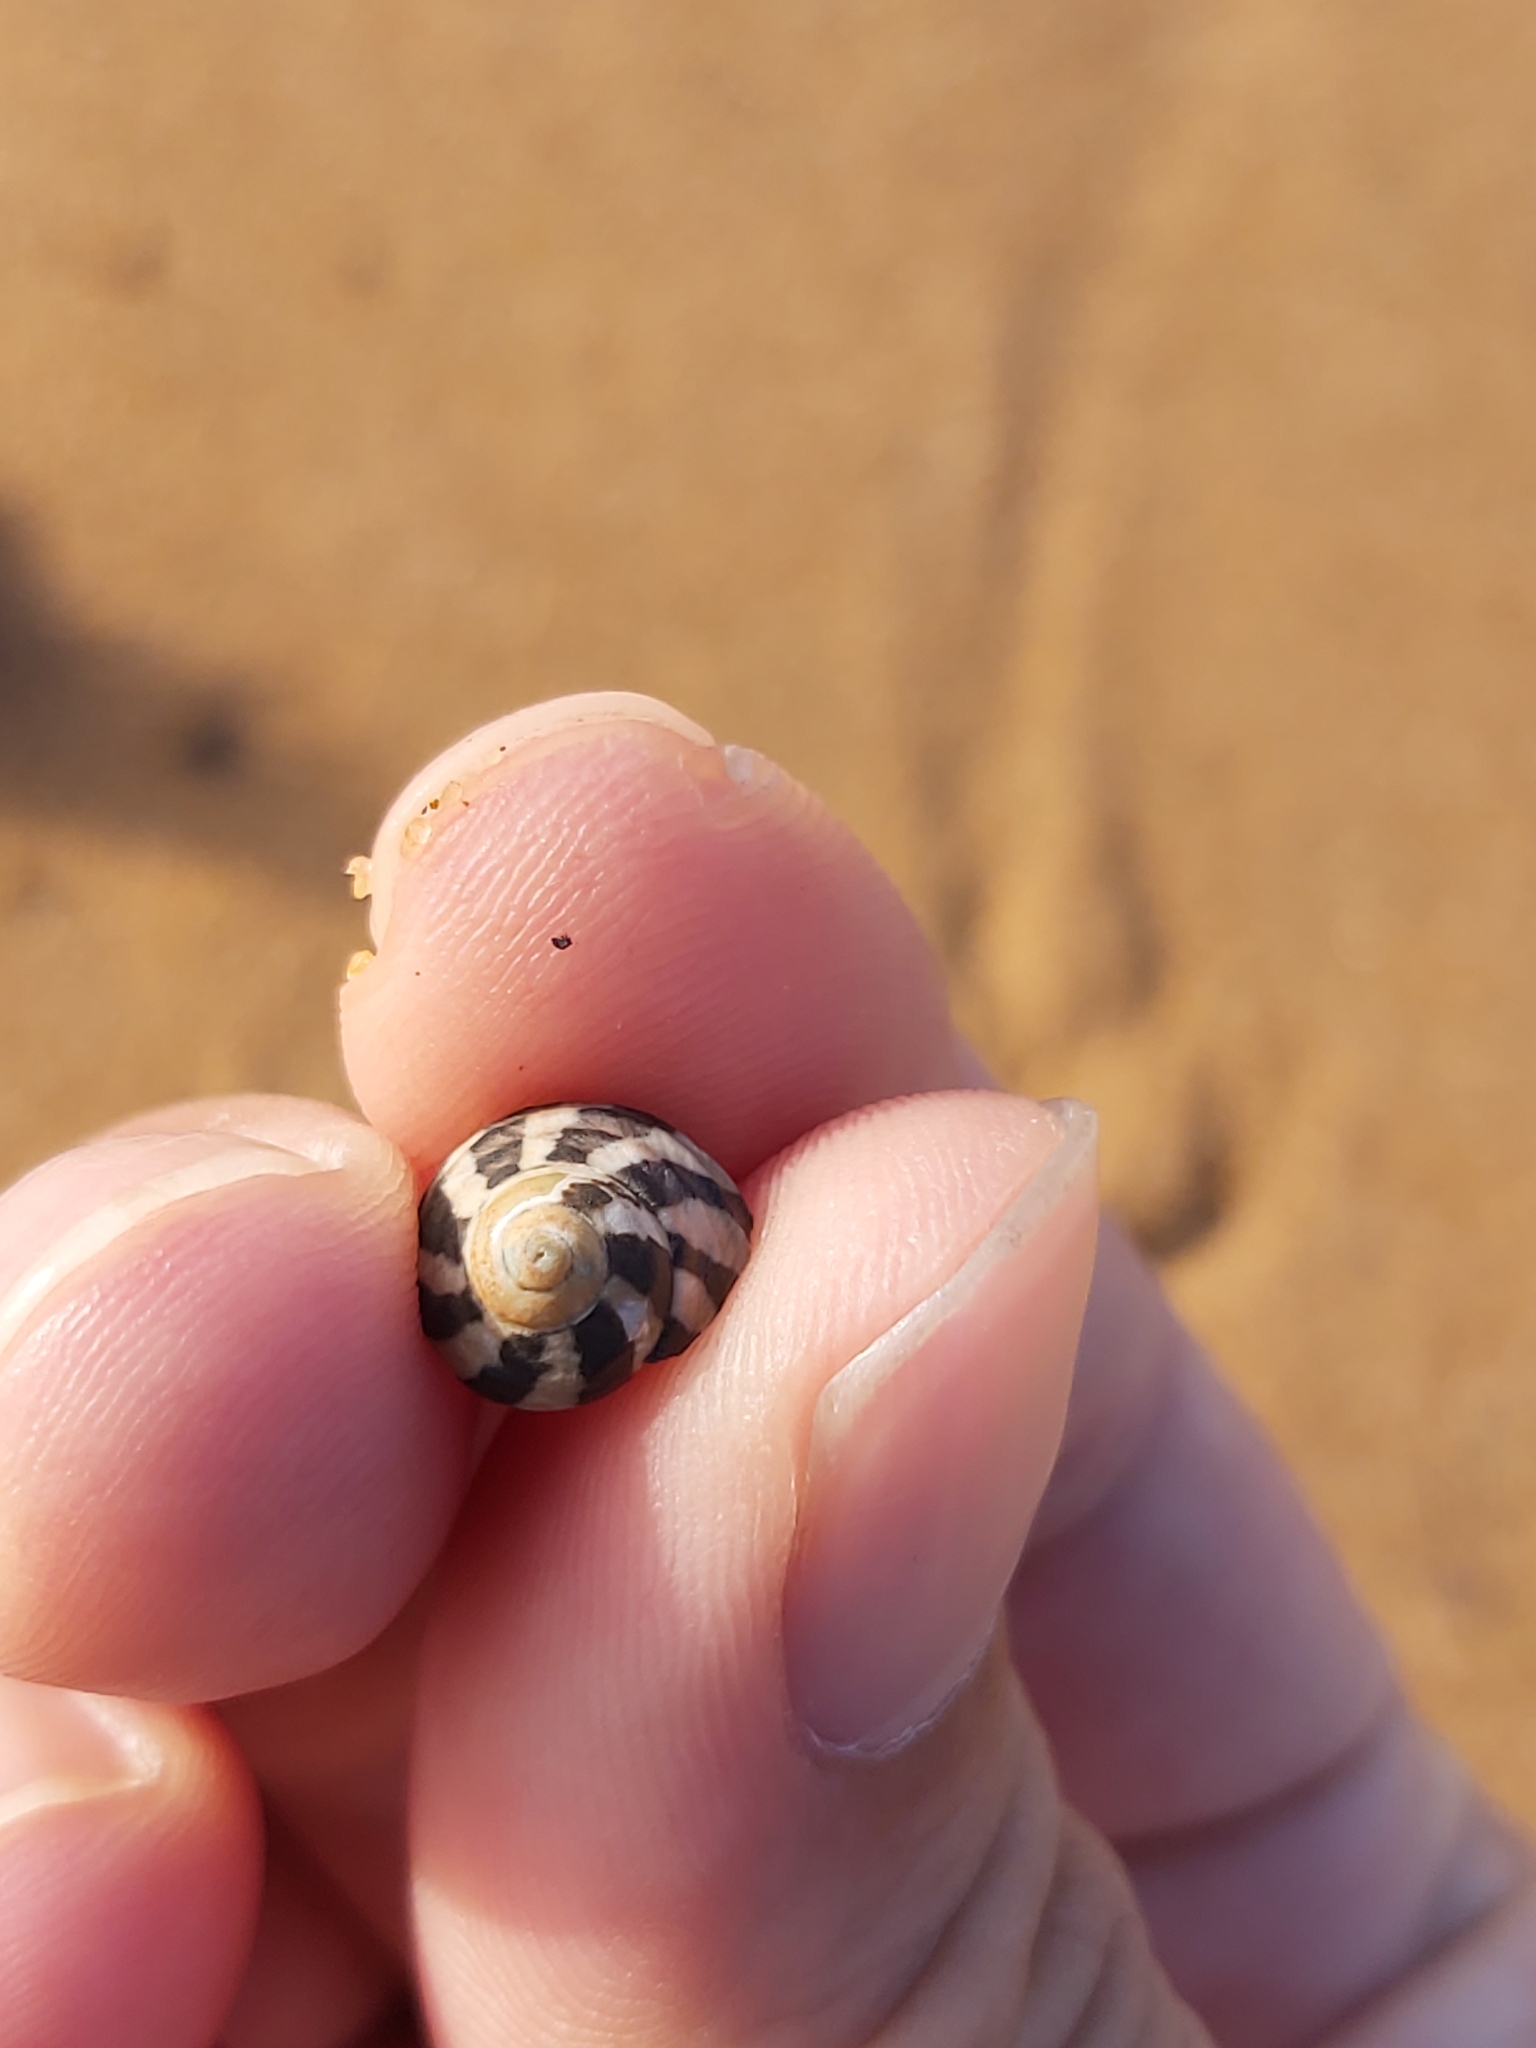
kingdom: Animalia
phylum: Mollusca
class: Gastropoda
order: Trochida
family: Trochidae
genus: Austrocochlea
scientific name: Austrocochlea porcata
